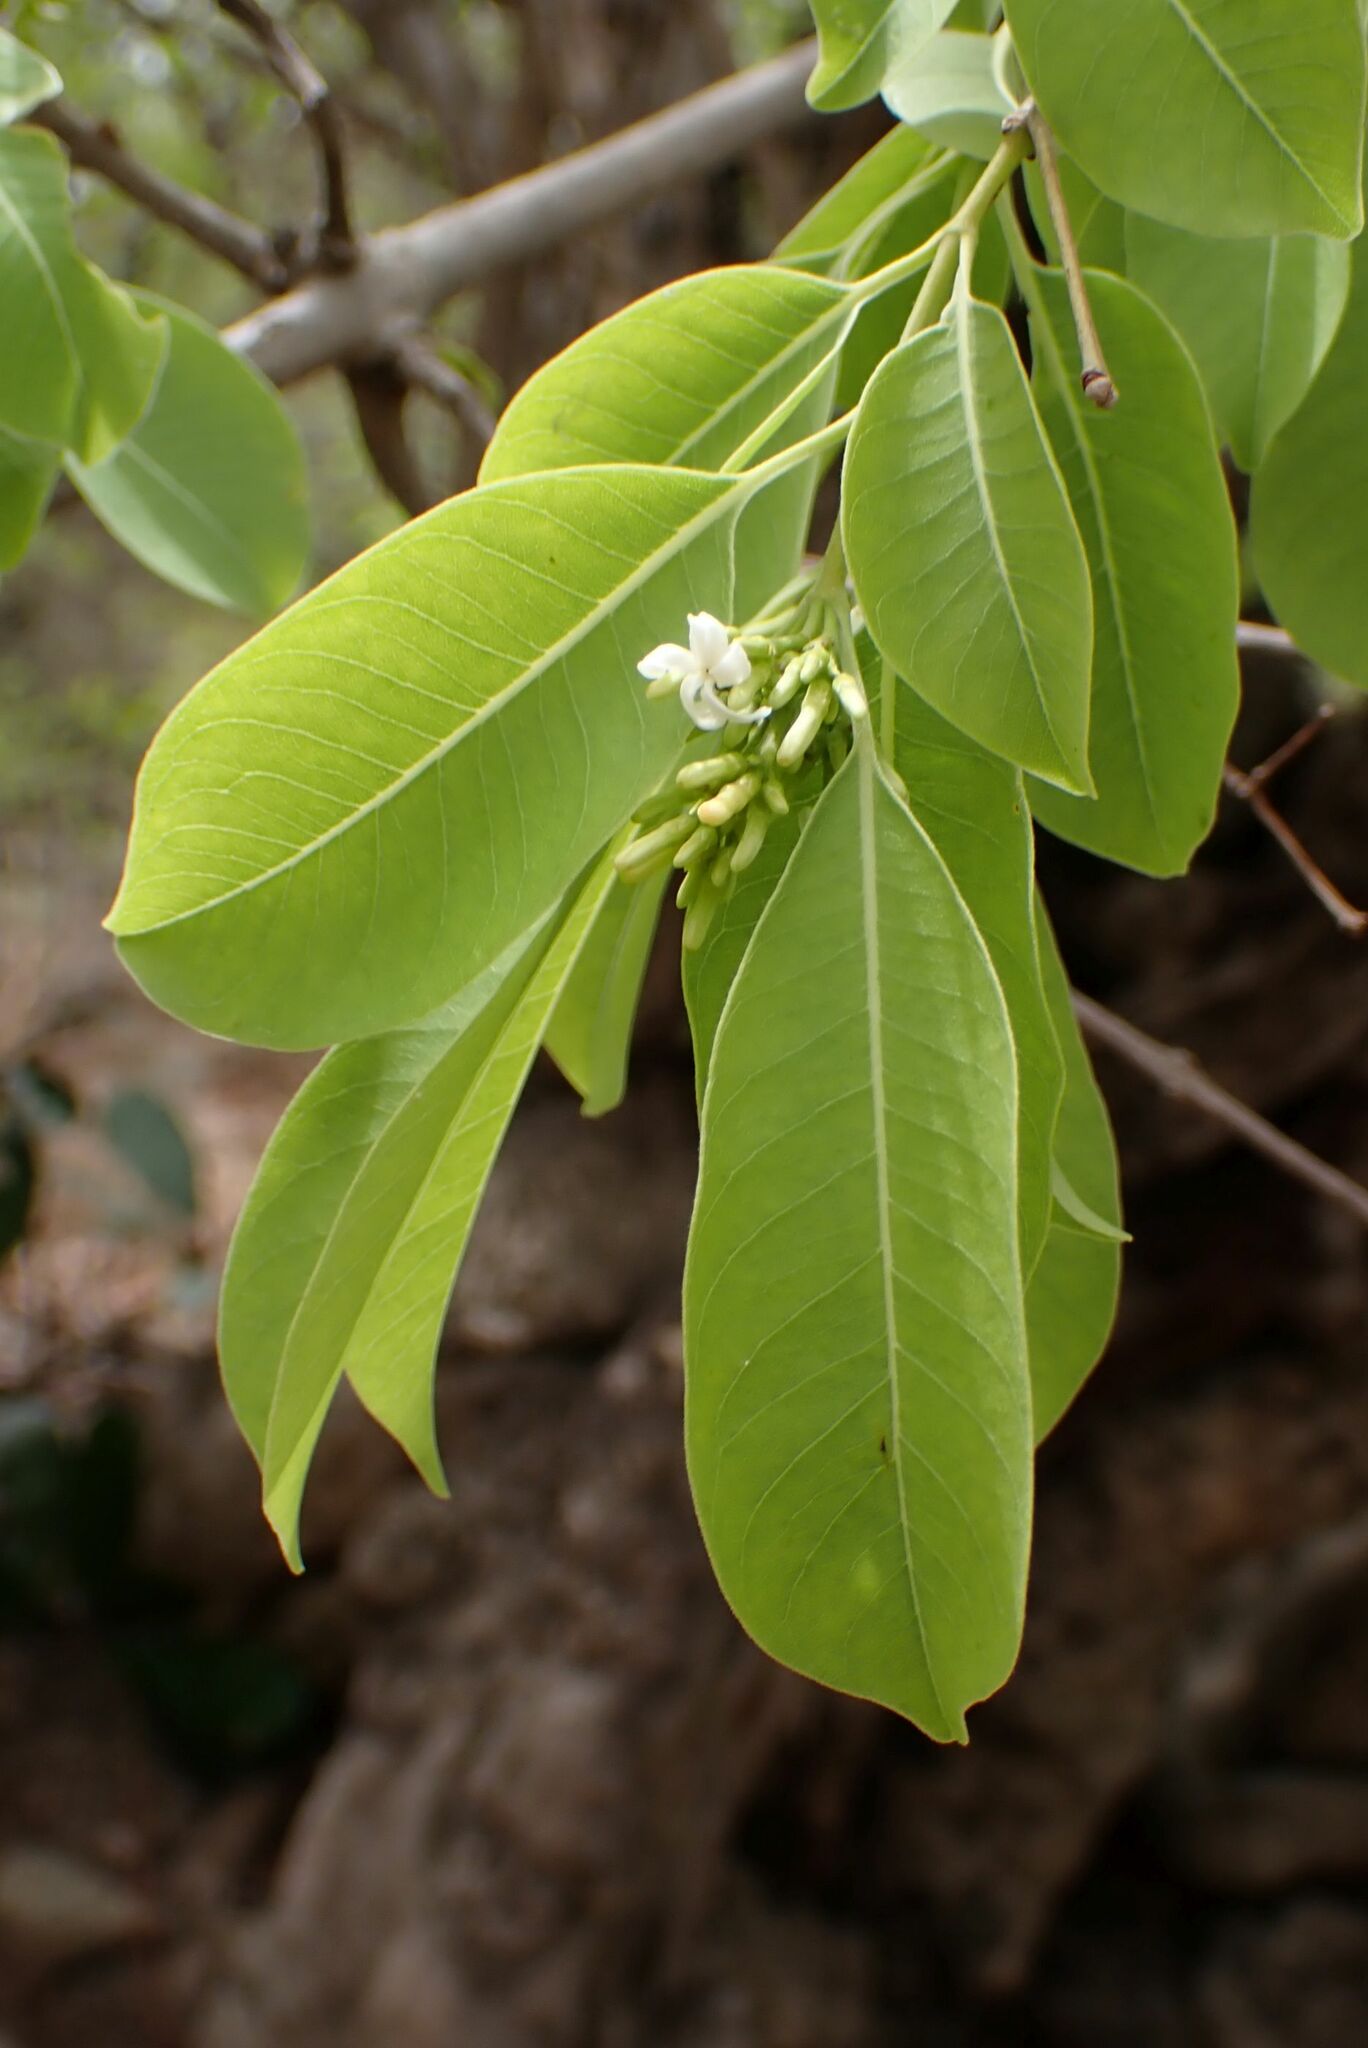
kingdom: Plantae
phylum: Tracheophyta
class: Magnoliopsida
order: Gentianales
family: Apocynaceae
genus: Diplorhynchus
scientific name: Diplorhynchus condylocarpon
